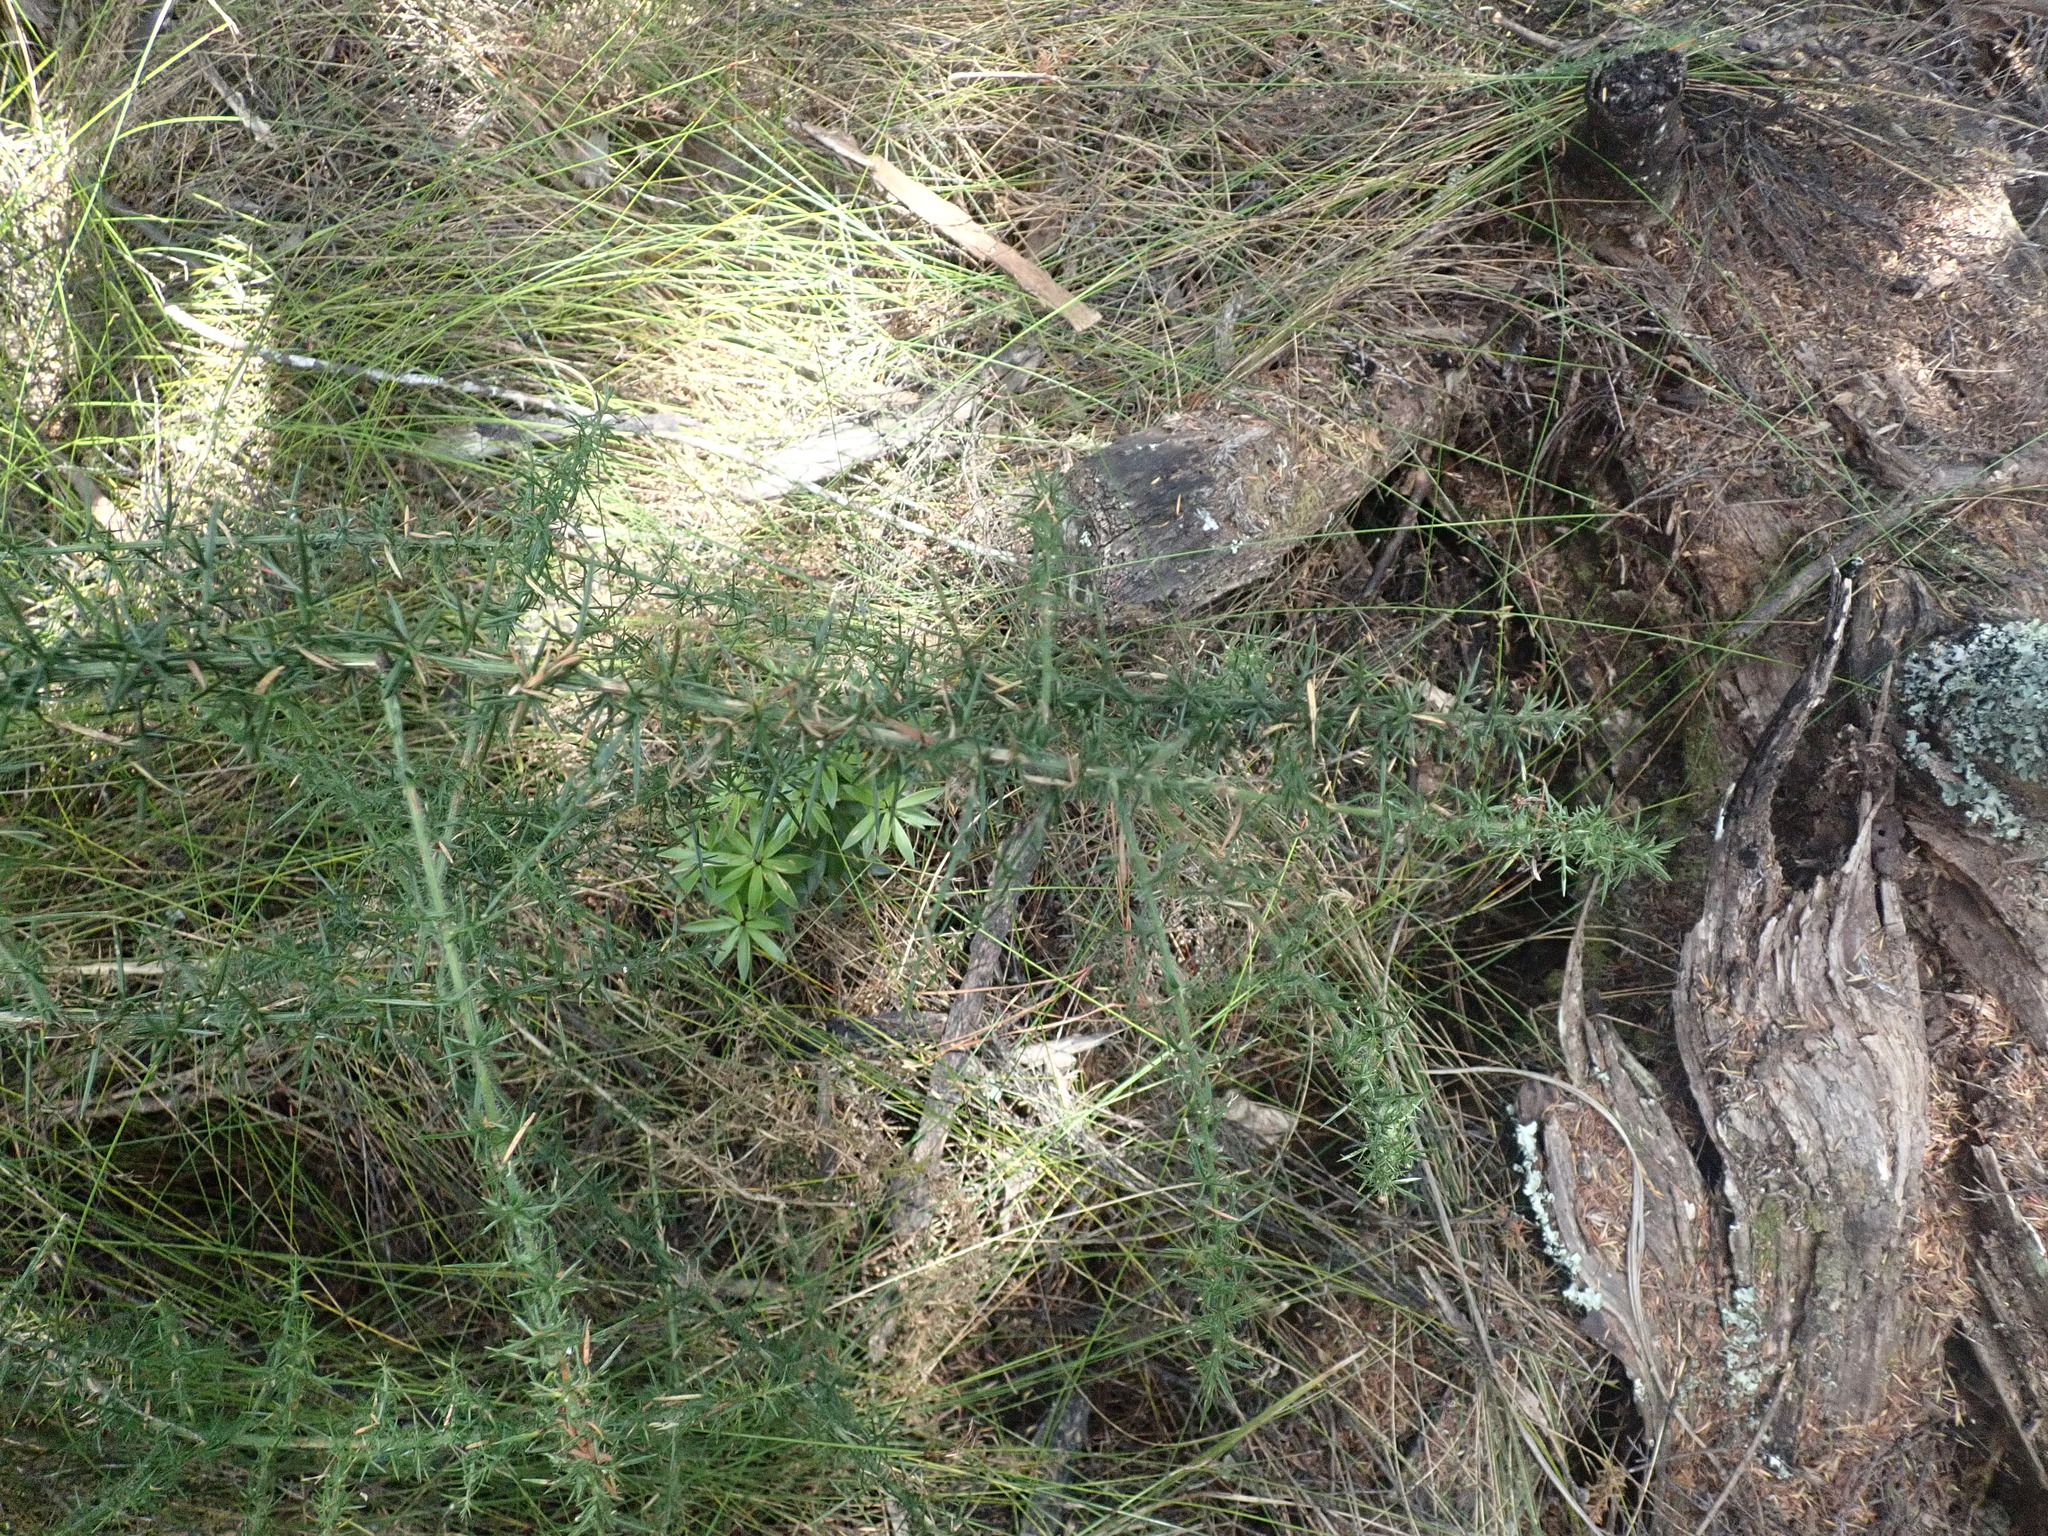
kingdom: Plantae
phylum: Tracheophyta
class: Magnoliopsida
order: Fabales
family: Fabaceae
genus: Ulex
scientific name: Ulex europaeus
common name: Common gorse
